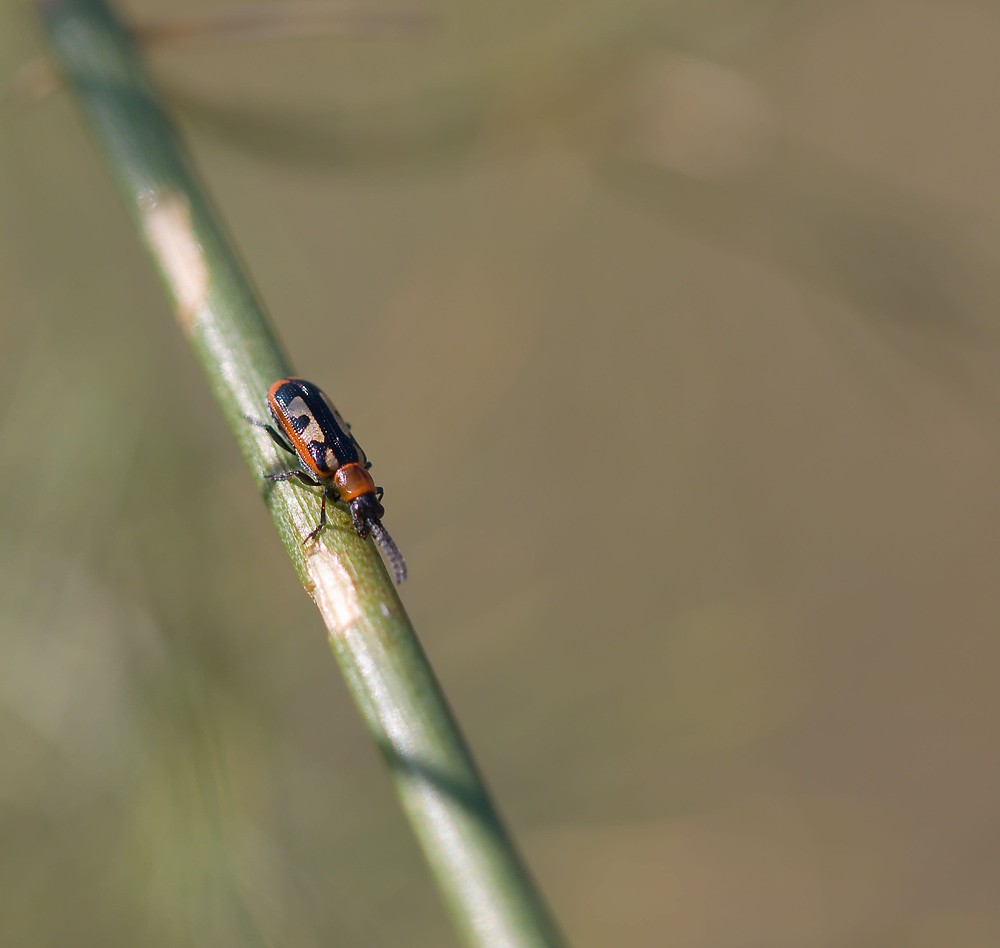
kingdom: Animalia
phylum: Arthropoda
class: Insecta
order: Coleoptera
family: Chrysomelidae
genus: Crioceris
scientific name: Crioceris asparagi
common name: Asparagus beetle
